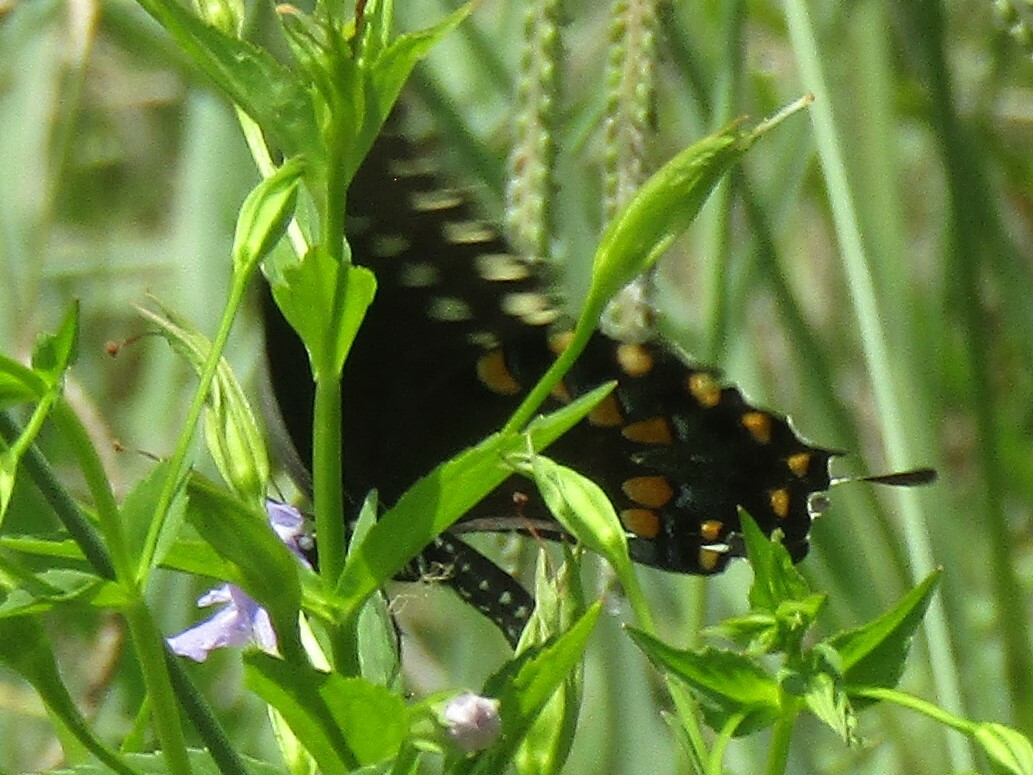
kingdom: Animalia
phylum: Arthropoda
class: Insecta
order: Lepidoptera
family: Papilionidae
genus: Papilio
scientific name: Papilio troilus
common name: Spicebush swallowtail
